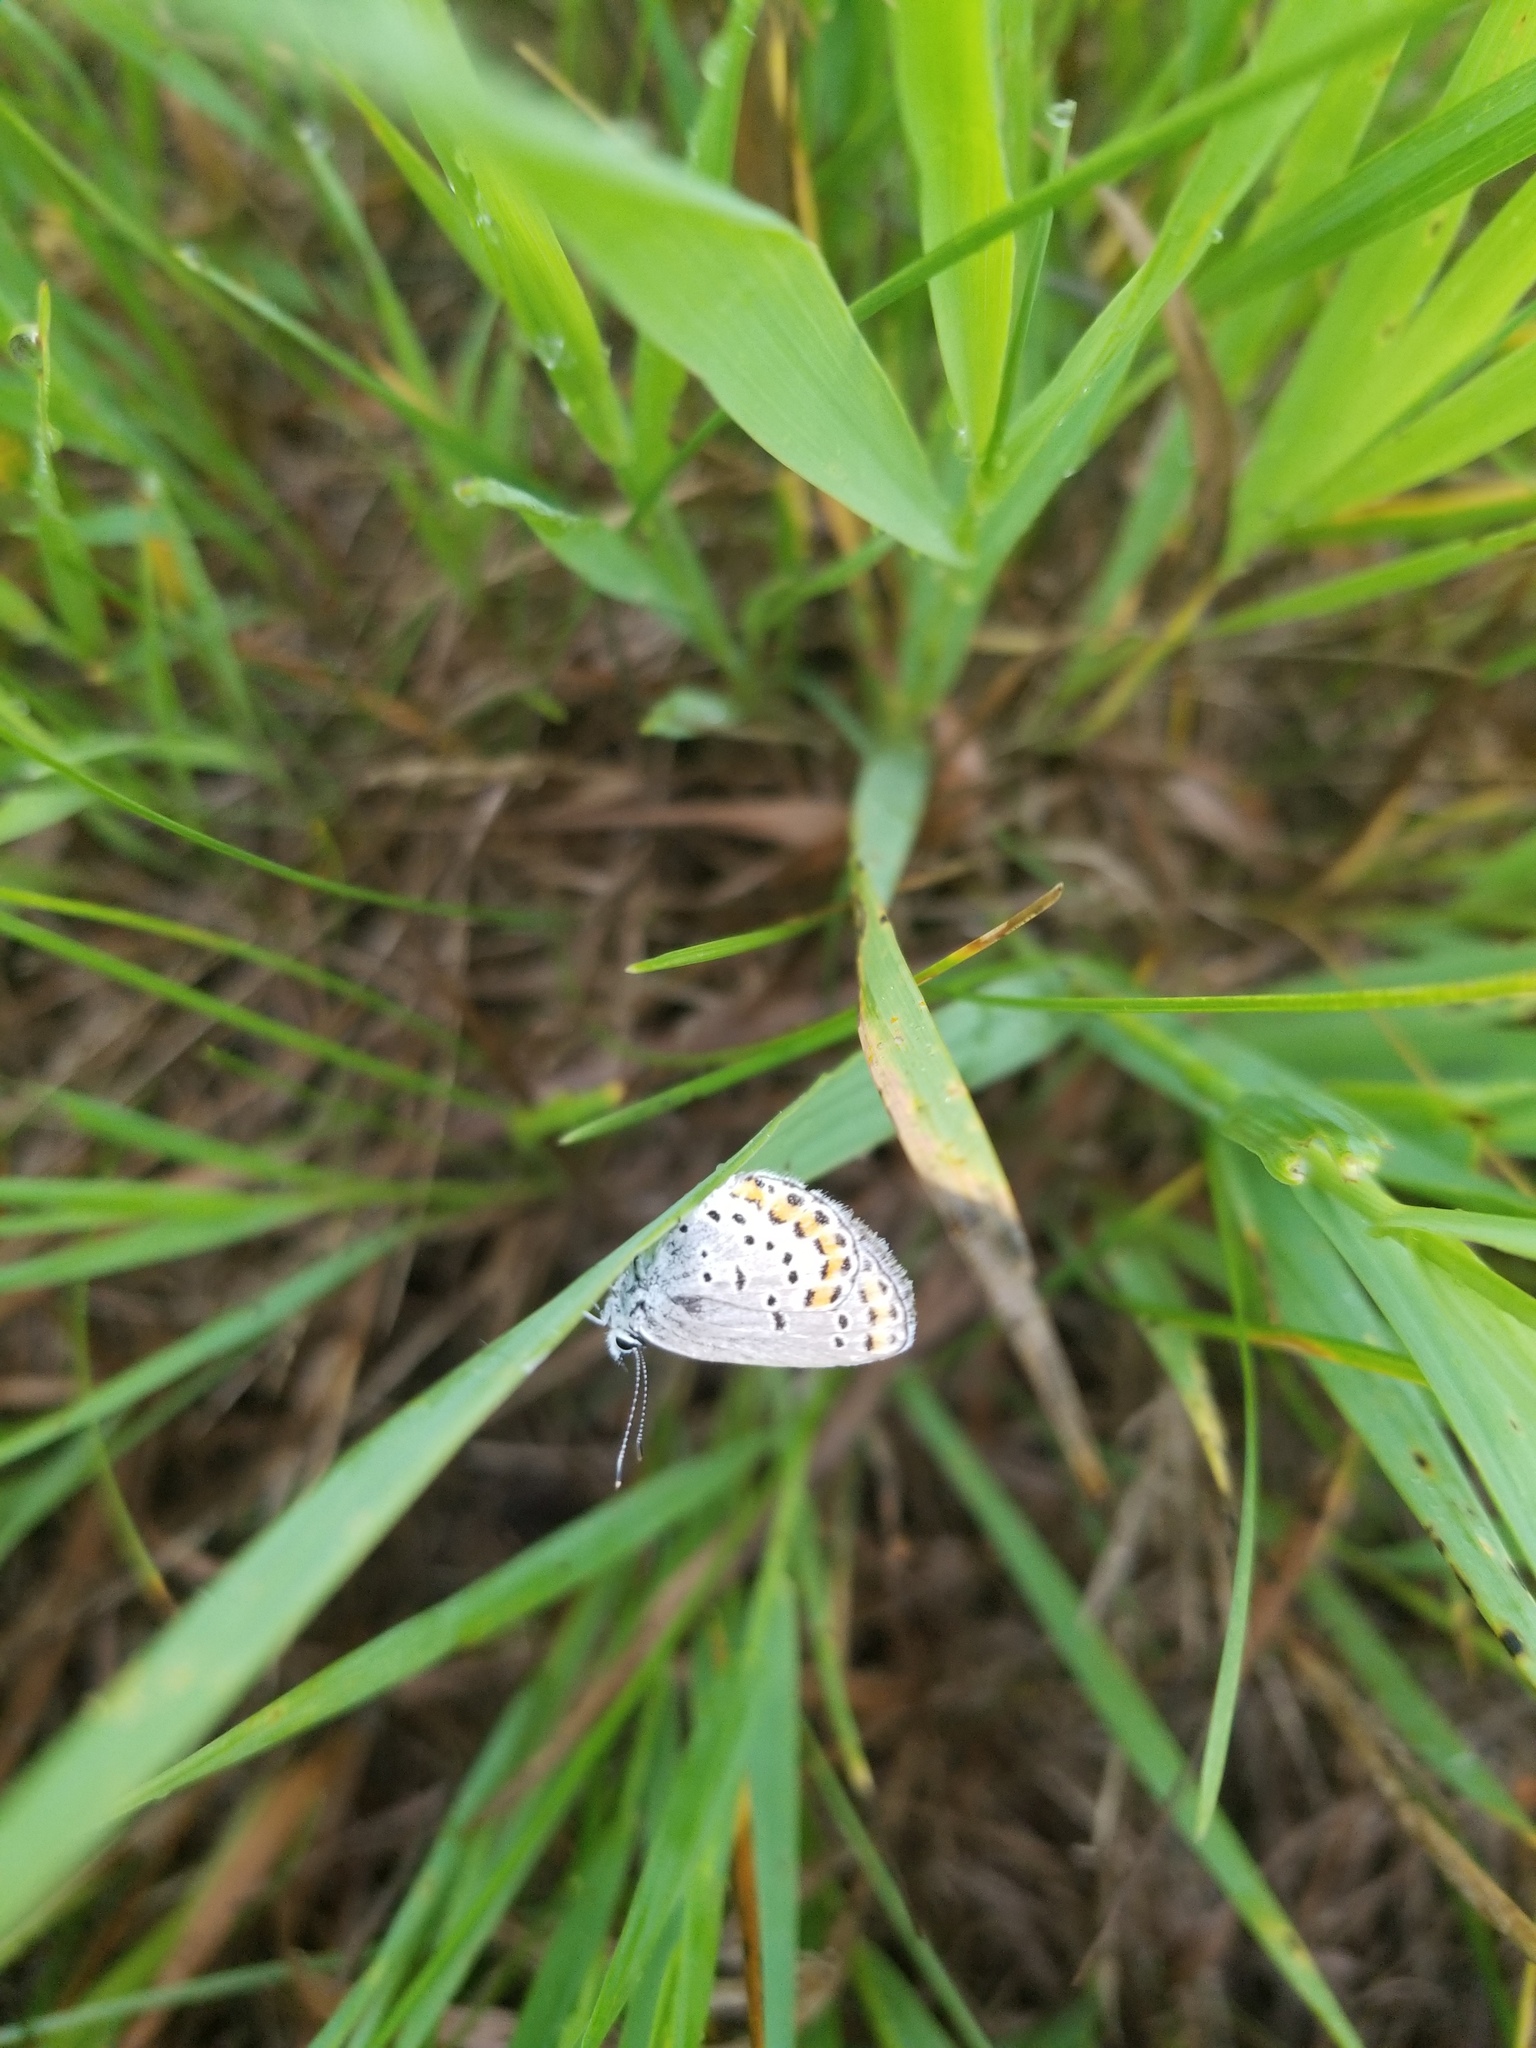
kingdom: Animalia
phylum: Arthropoda
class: Insecta
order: Lepidoptera
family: Lycaenidae
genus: Lycaeides
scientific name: Lycaeides melissa
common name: Melissa blue
